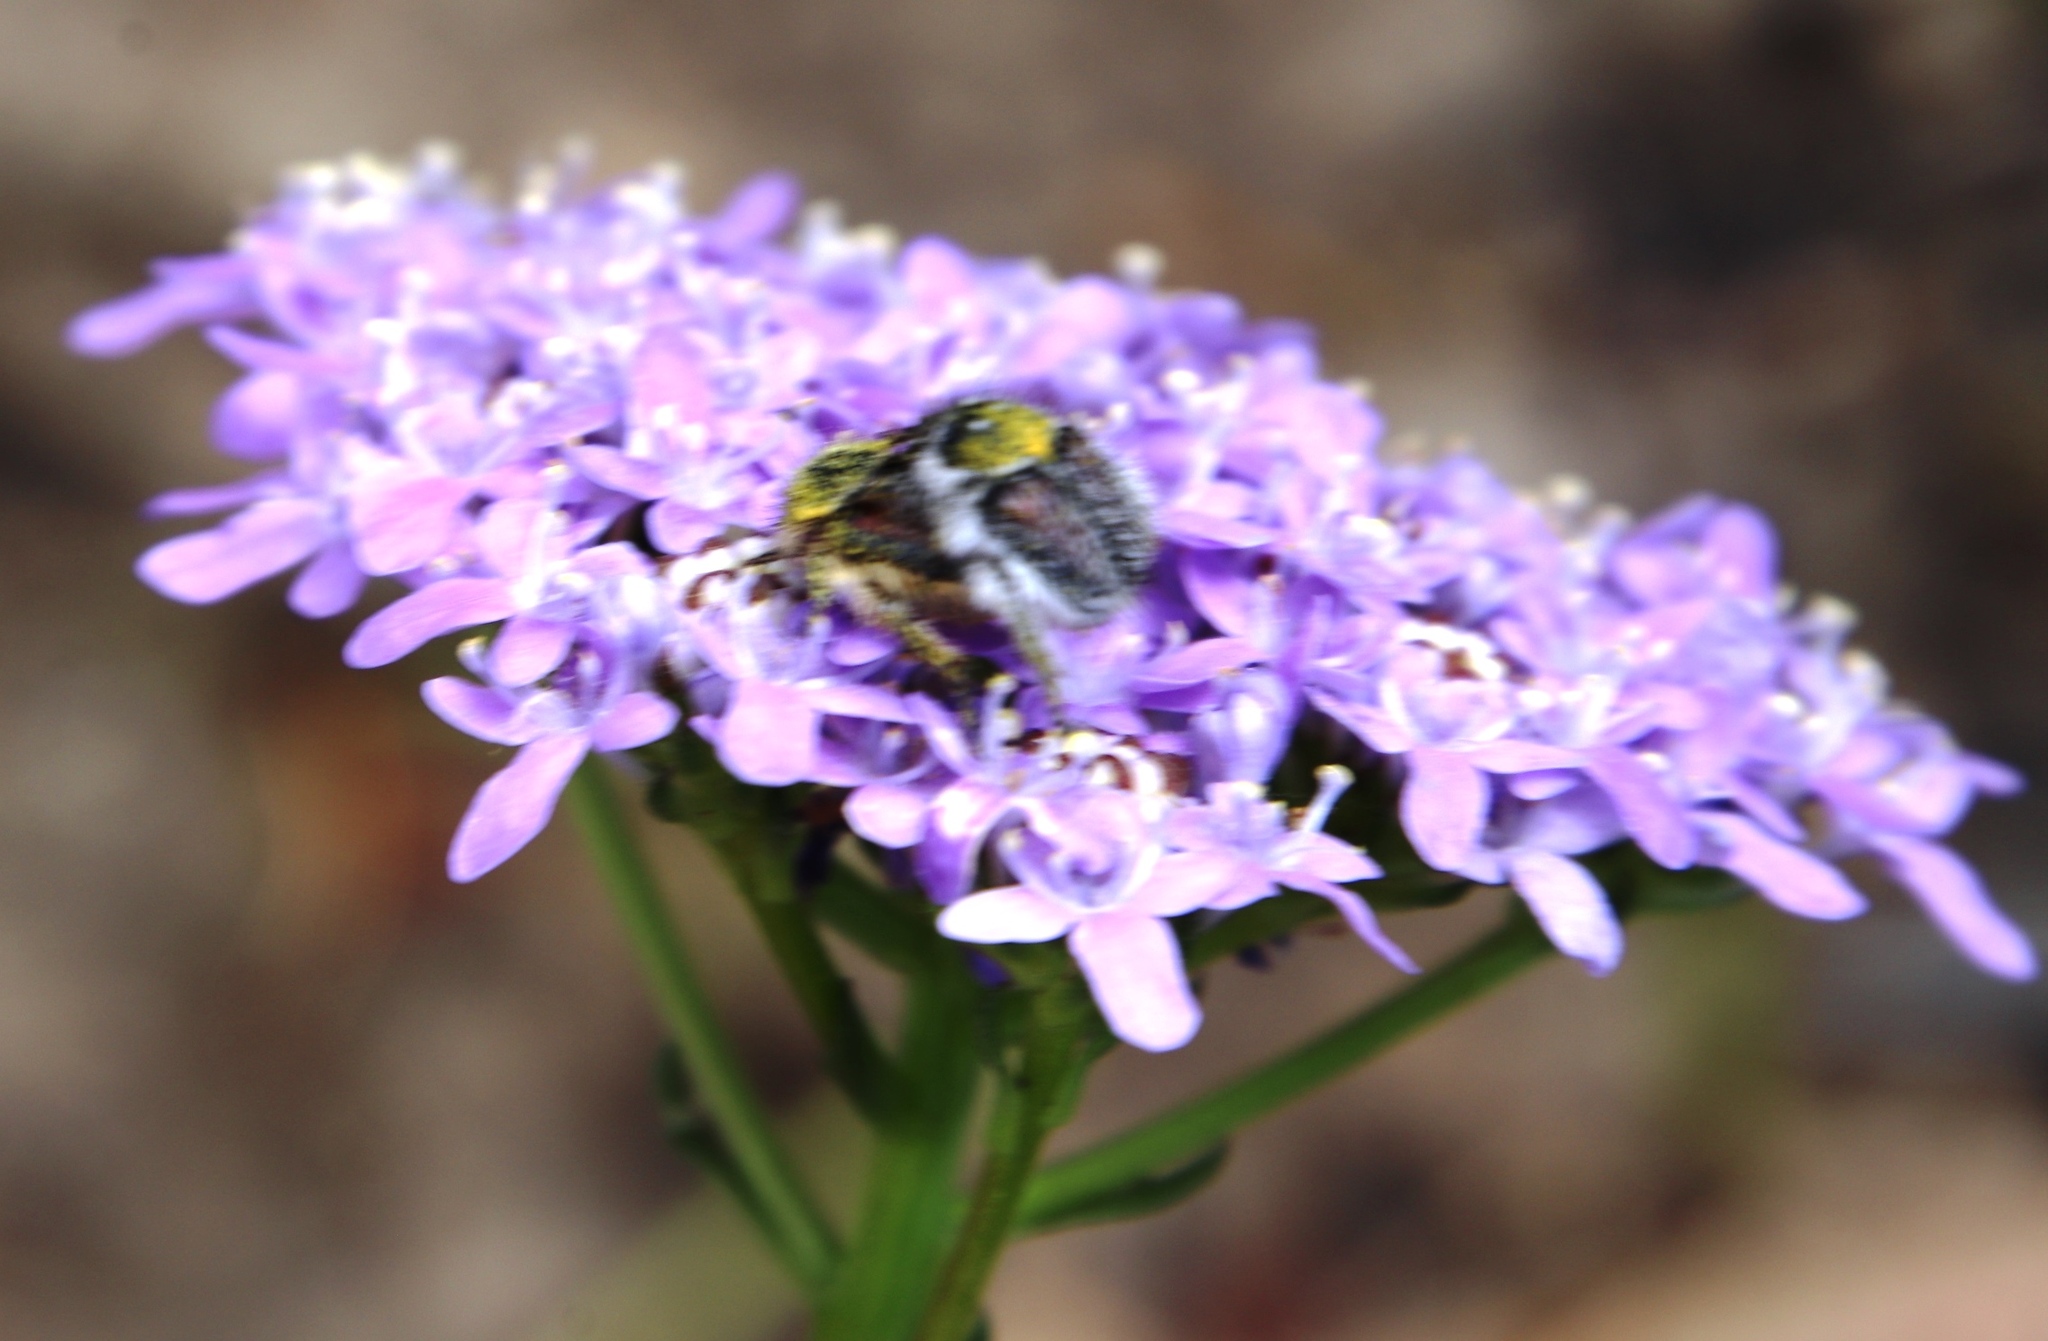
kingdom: Plantae
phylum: Tracheophyta
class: Magnoliopsida
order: Lamiales
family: Scrophulariaceae
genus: Pseudoselago
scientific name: Pseudoselago spuria
